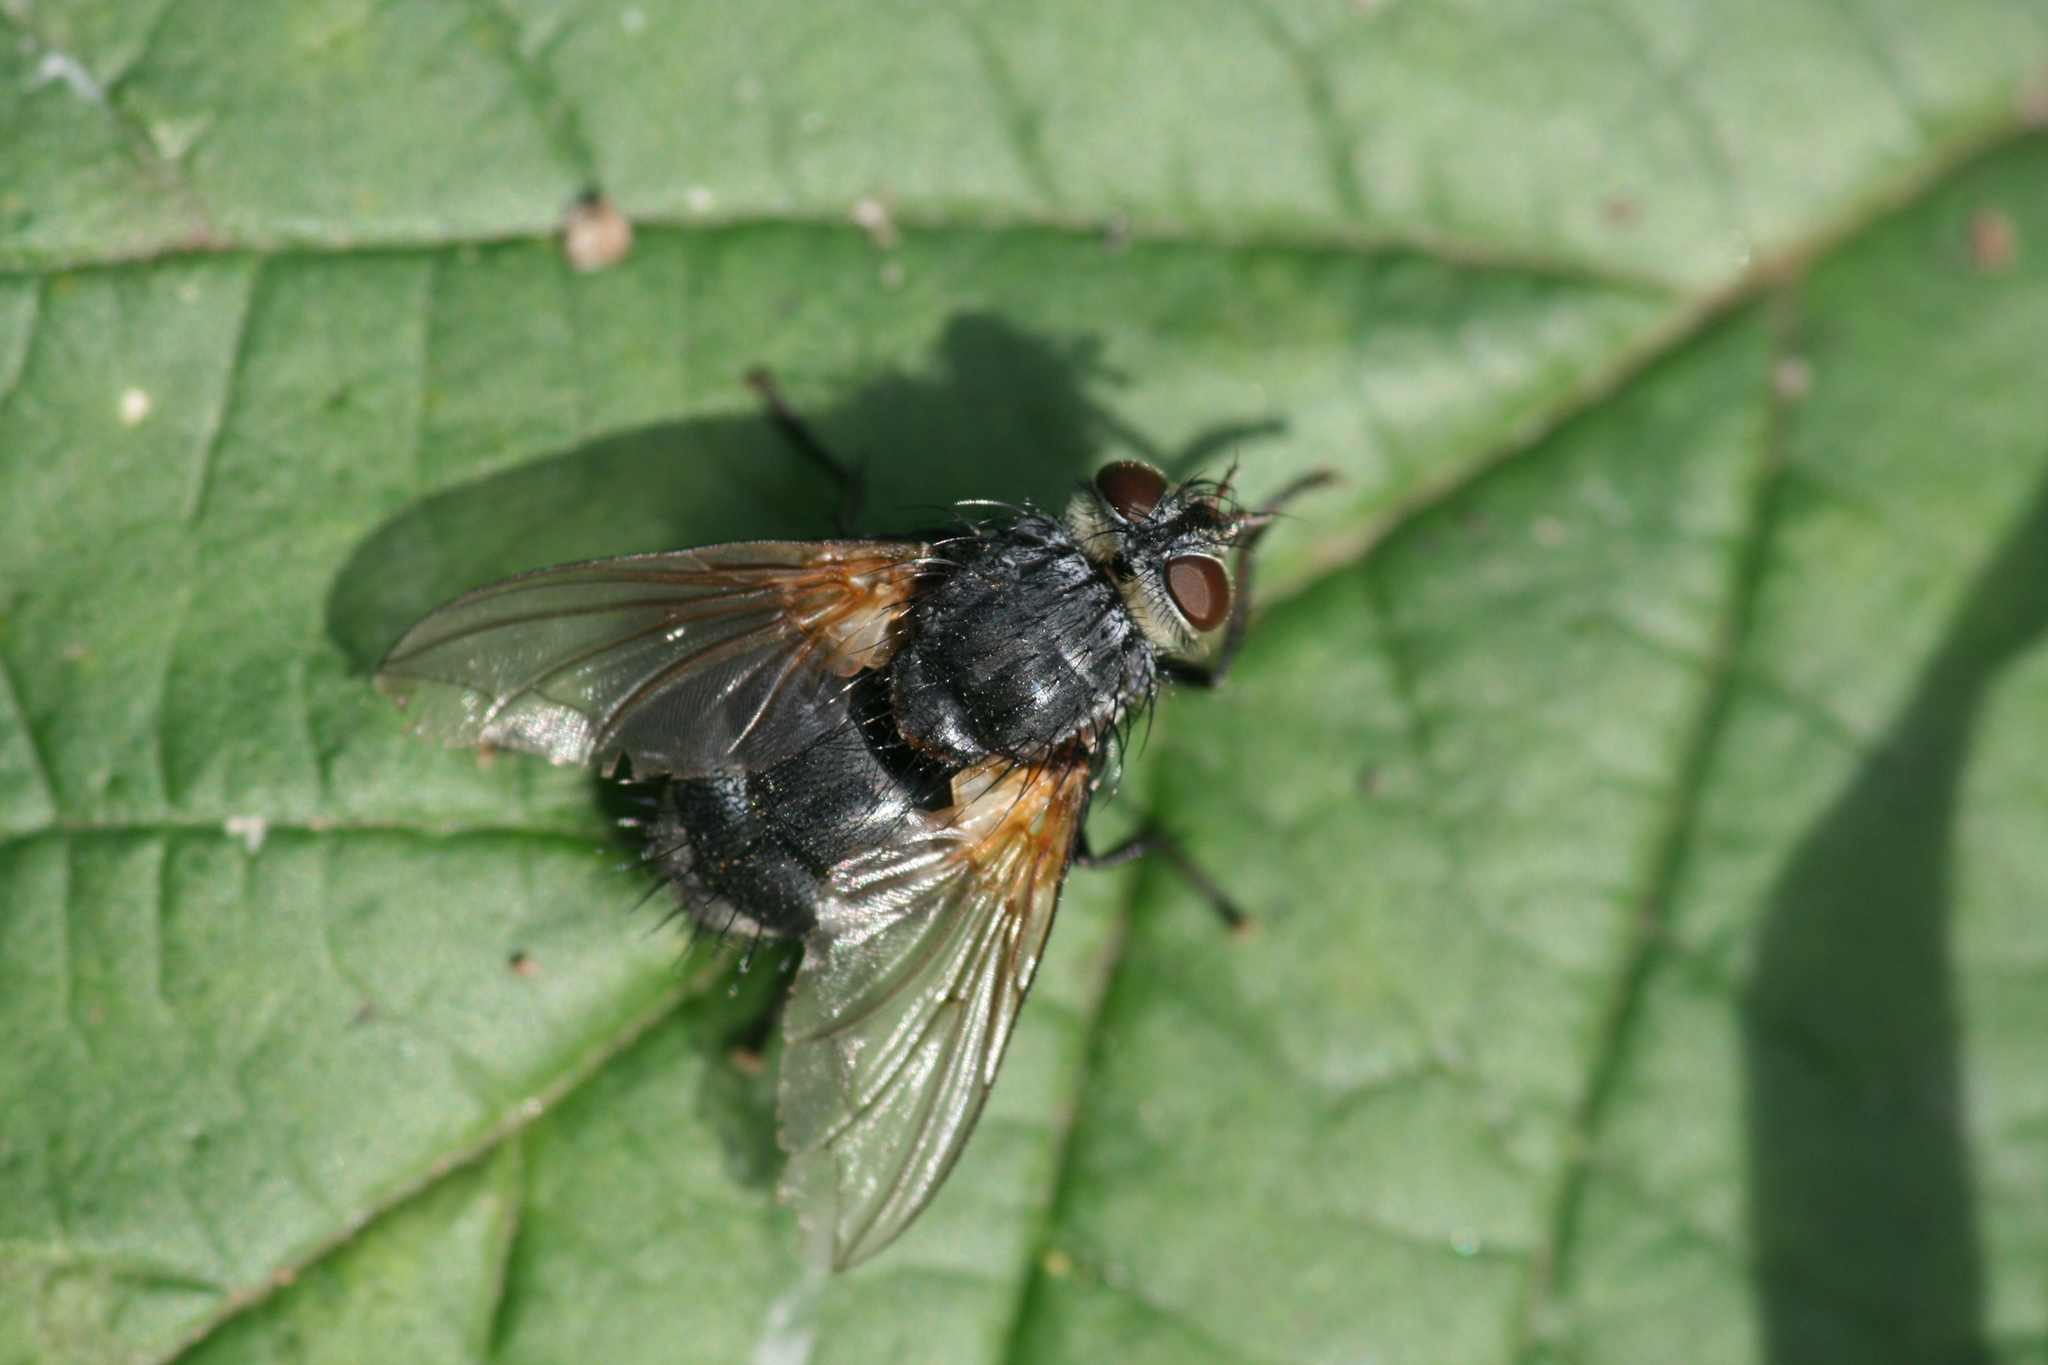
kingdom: Animalia
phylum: Arthropoda
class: Insecta
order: Diptera
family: Tachinidae
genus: Nemoraea
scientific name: Nemoraea pellucida
